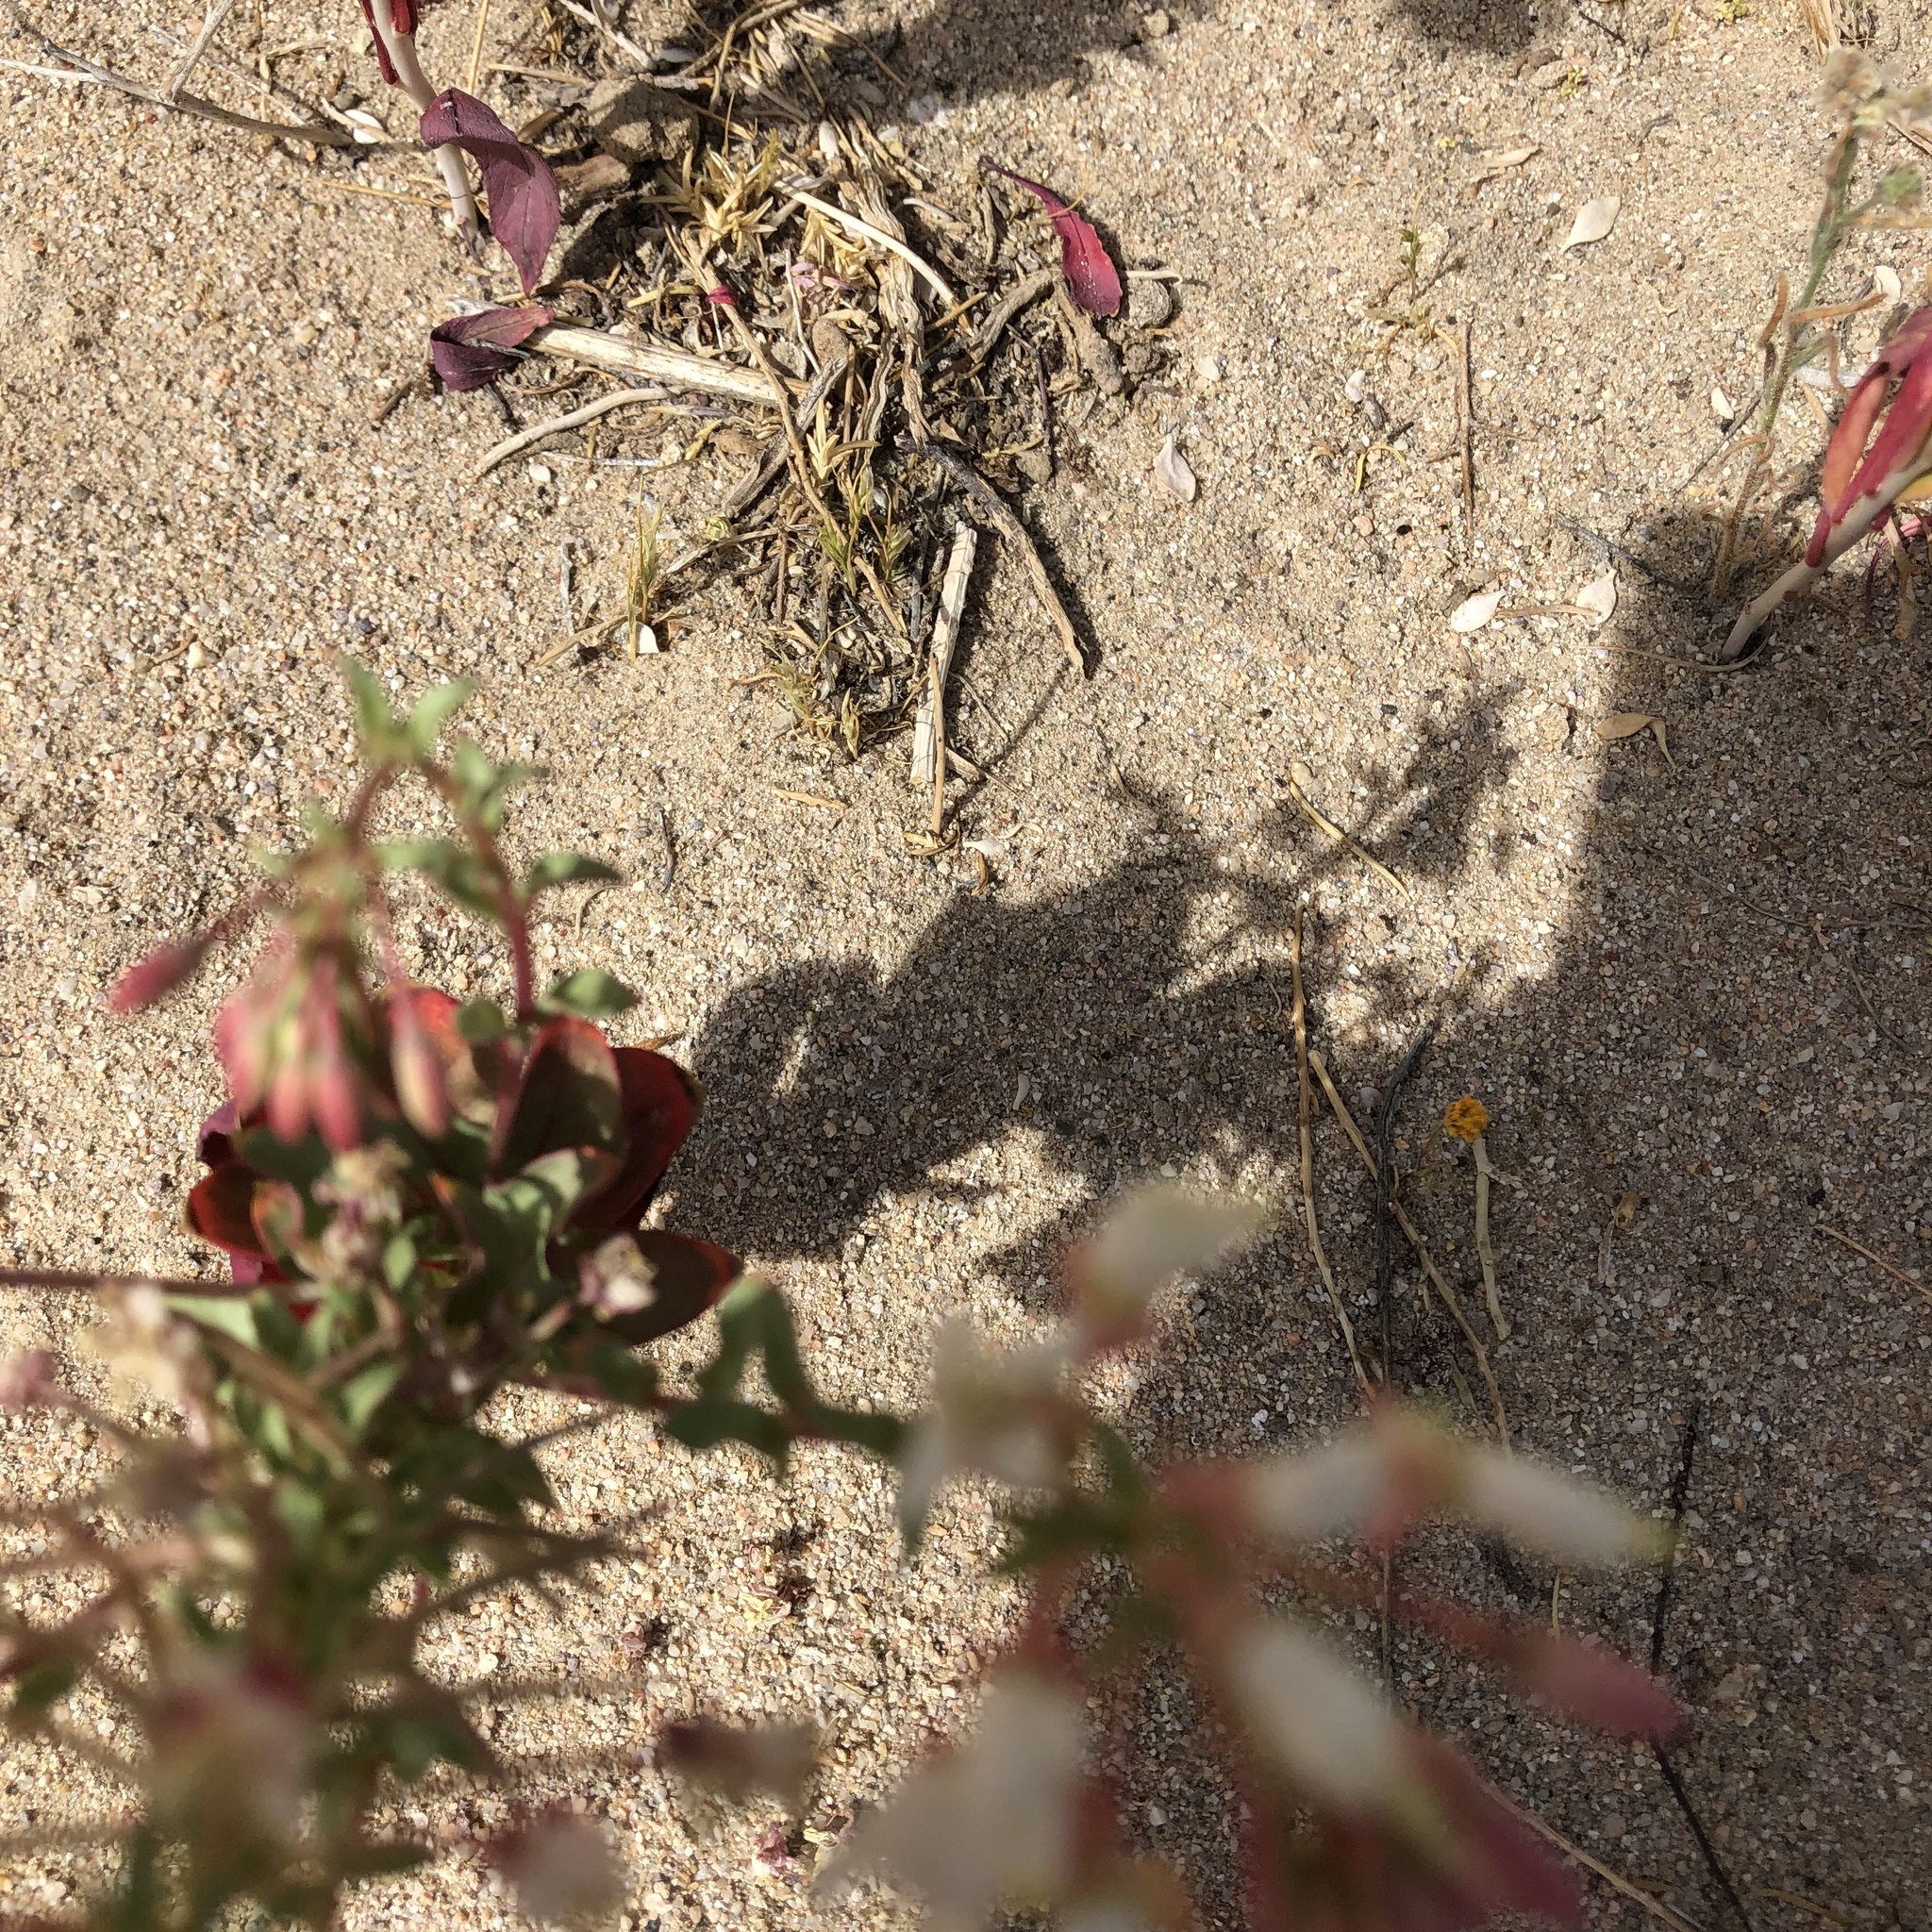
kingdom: Plantae
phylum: Tracheophyta
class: Magnoliopsida
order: Myrtales
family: Onagraceae
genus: Eremothera
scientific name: Eremothera boothii
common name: Booth's evening primrose
